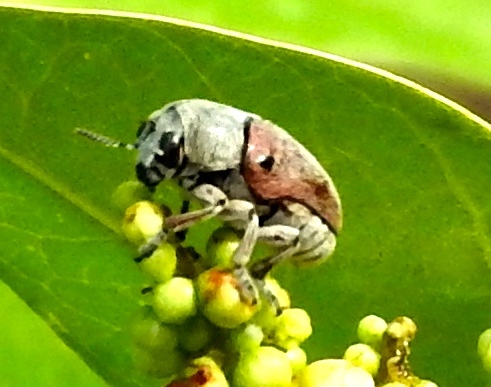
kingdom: Animalia
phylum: Arthropoda
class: Insecta
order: Coleoptera
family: Chrysomelidae
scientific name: Chrysomelidae
